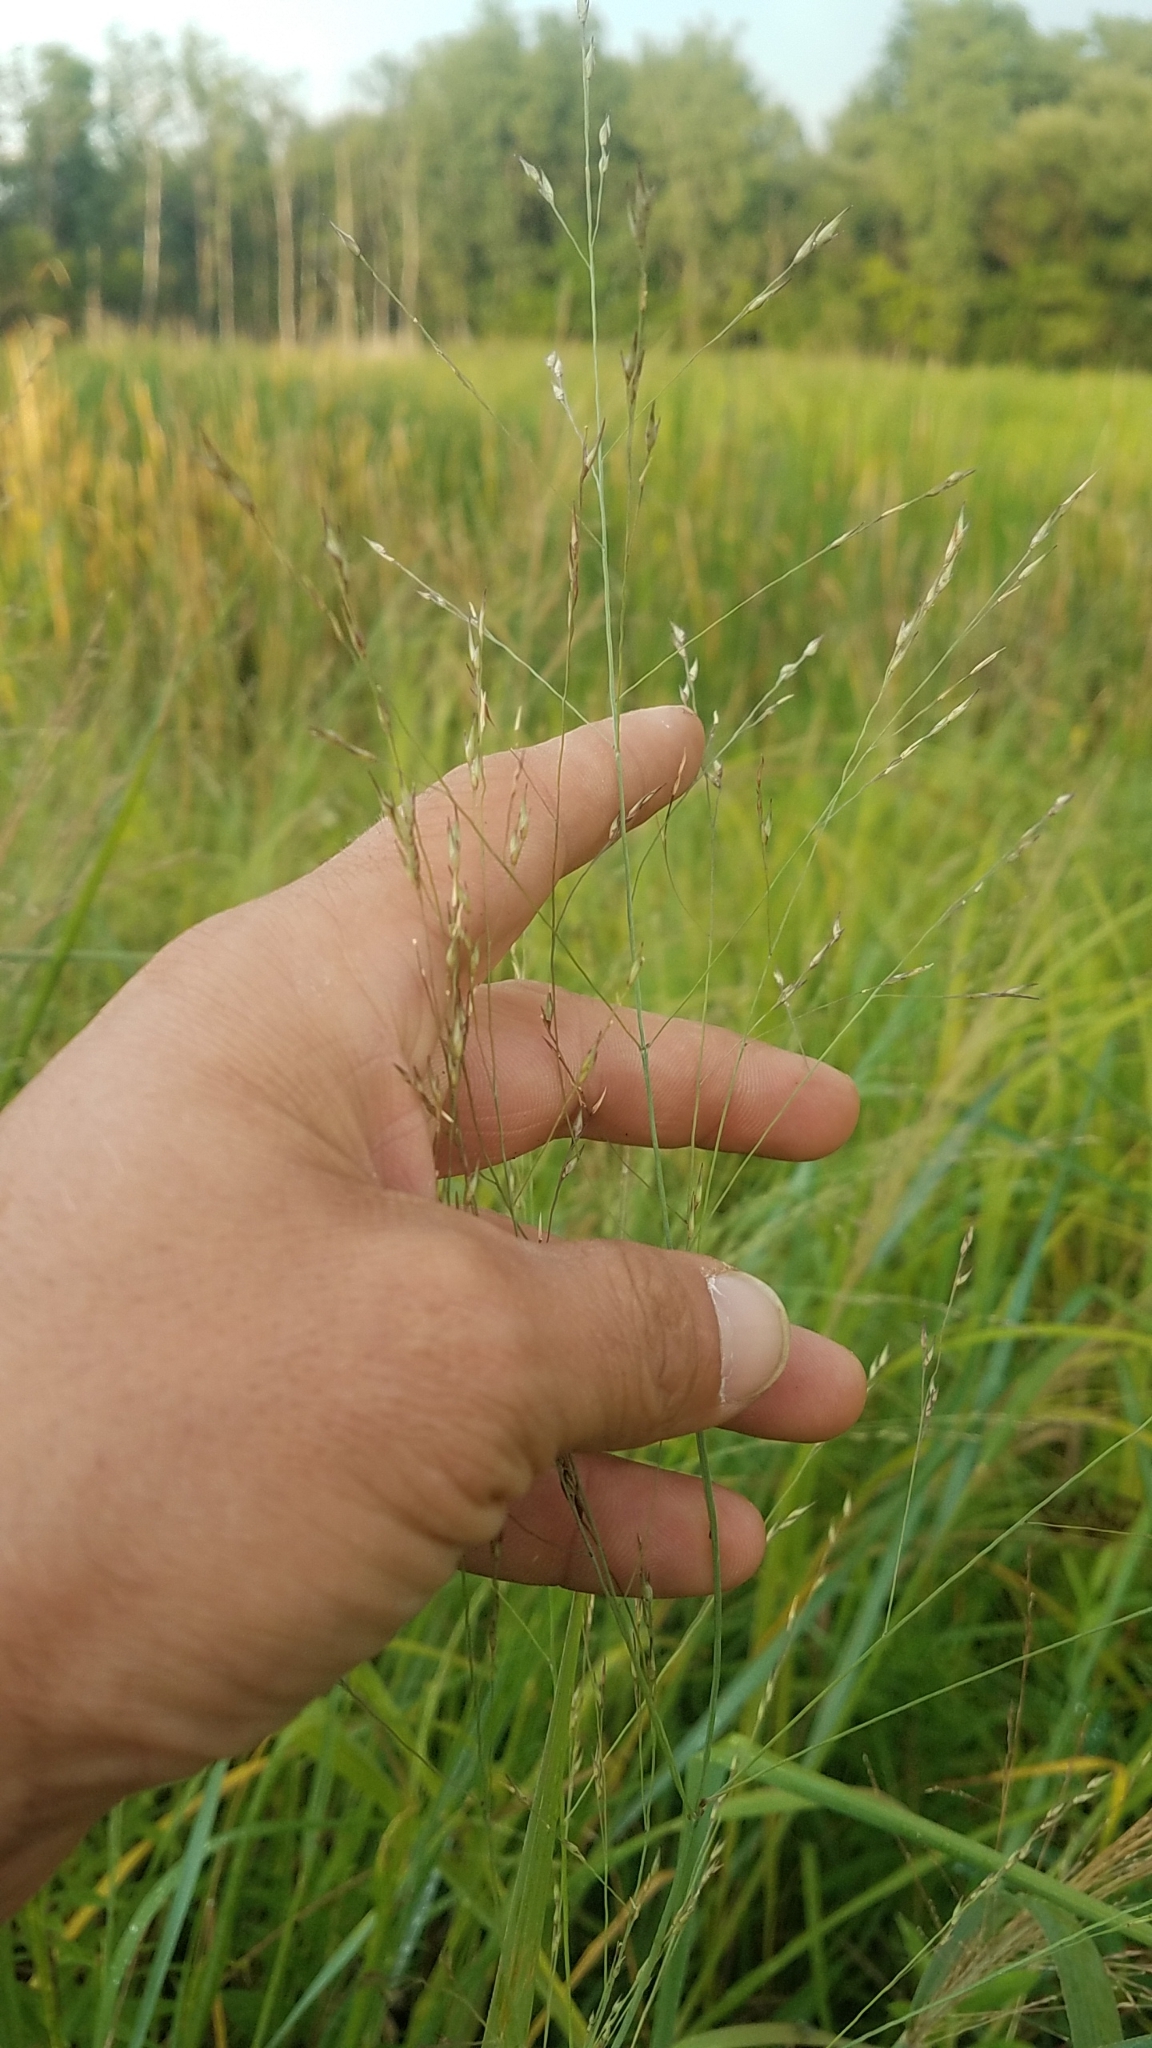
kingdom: Plantae
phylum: Tracheophyta
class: Liliopsida
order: Poales
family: Poaceae
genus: Panicum
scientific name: Panicum virgatum
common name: Switchgrass
